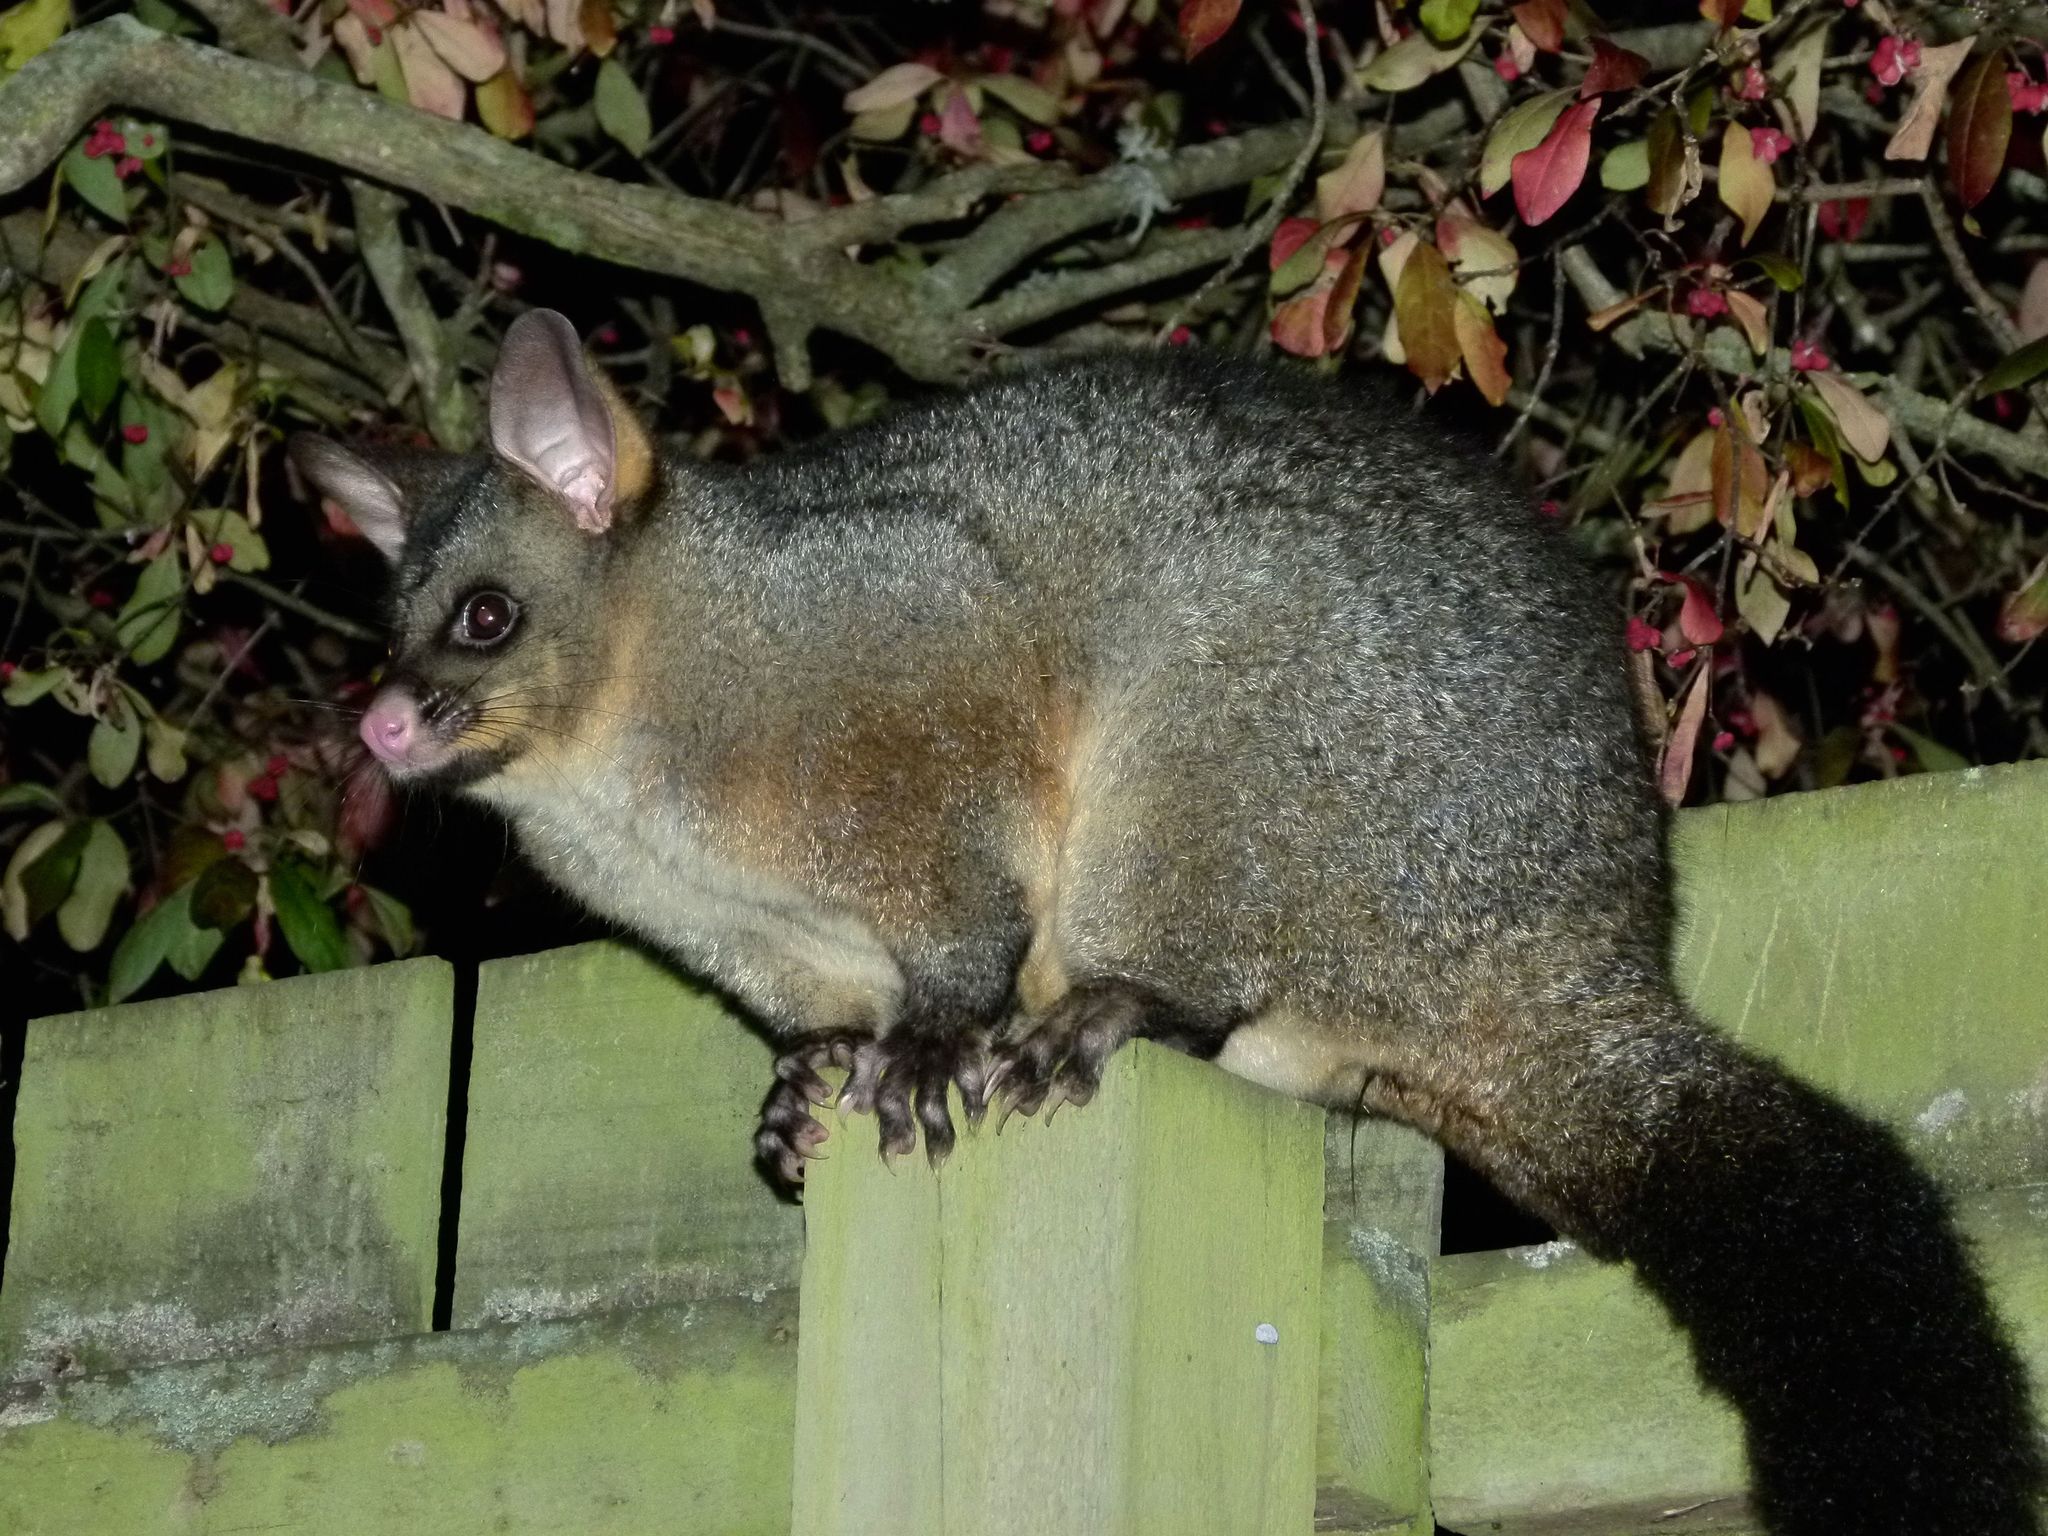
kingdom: Animalia
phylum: Chordata
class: Mammalia
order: Diprotodontia
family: Phalangeridae
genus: Trichosurus
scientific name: Trichosurus vulpecula
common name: Common brushtail
